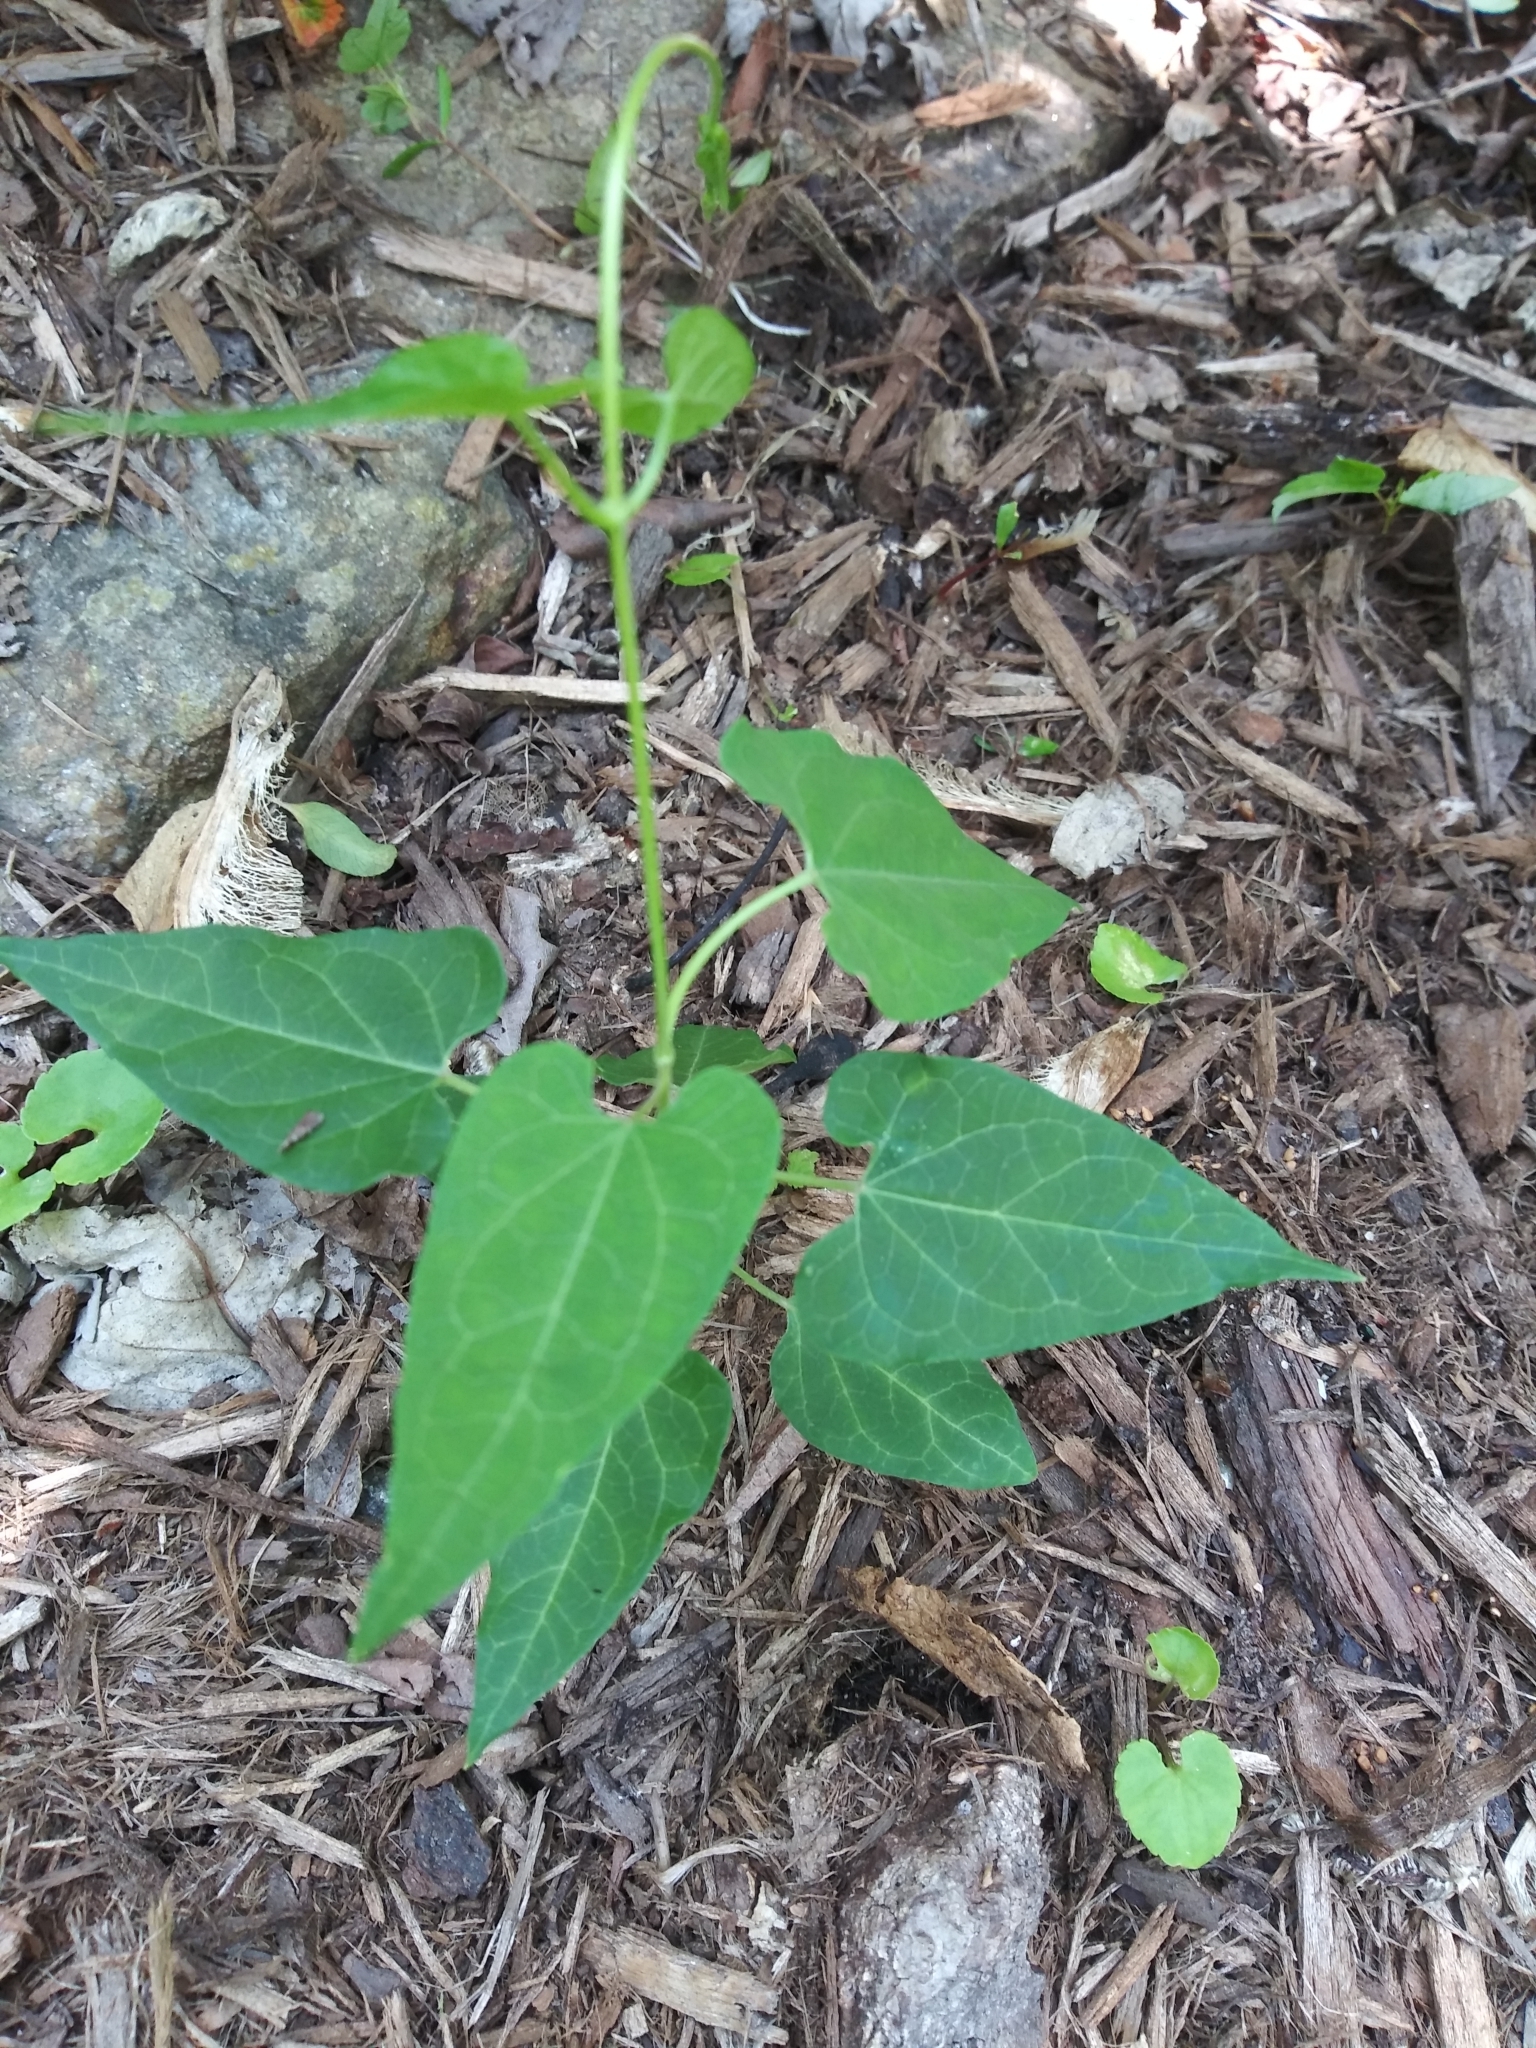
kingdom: Plantae
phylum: Tracheophyta
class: Magnoliopsida
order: Gentianales
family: Apocynaceae
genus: Cynanchum
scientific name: Cynanchum laeve
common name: Sandvine
